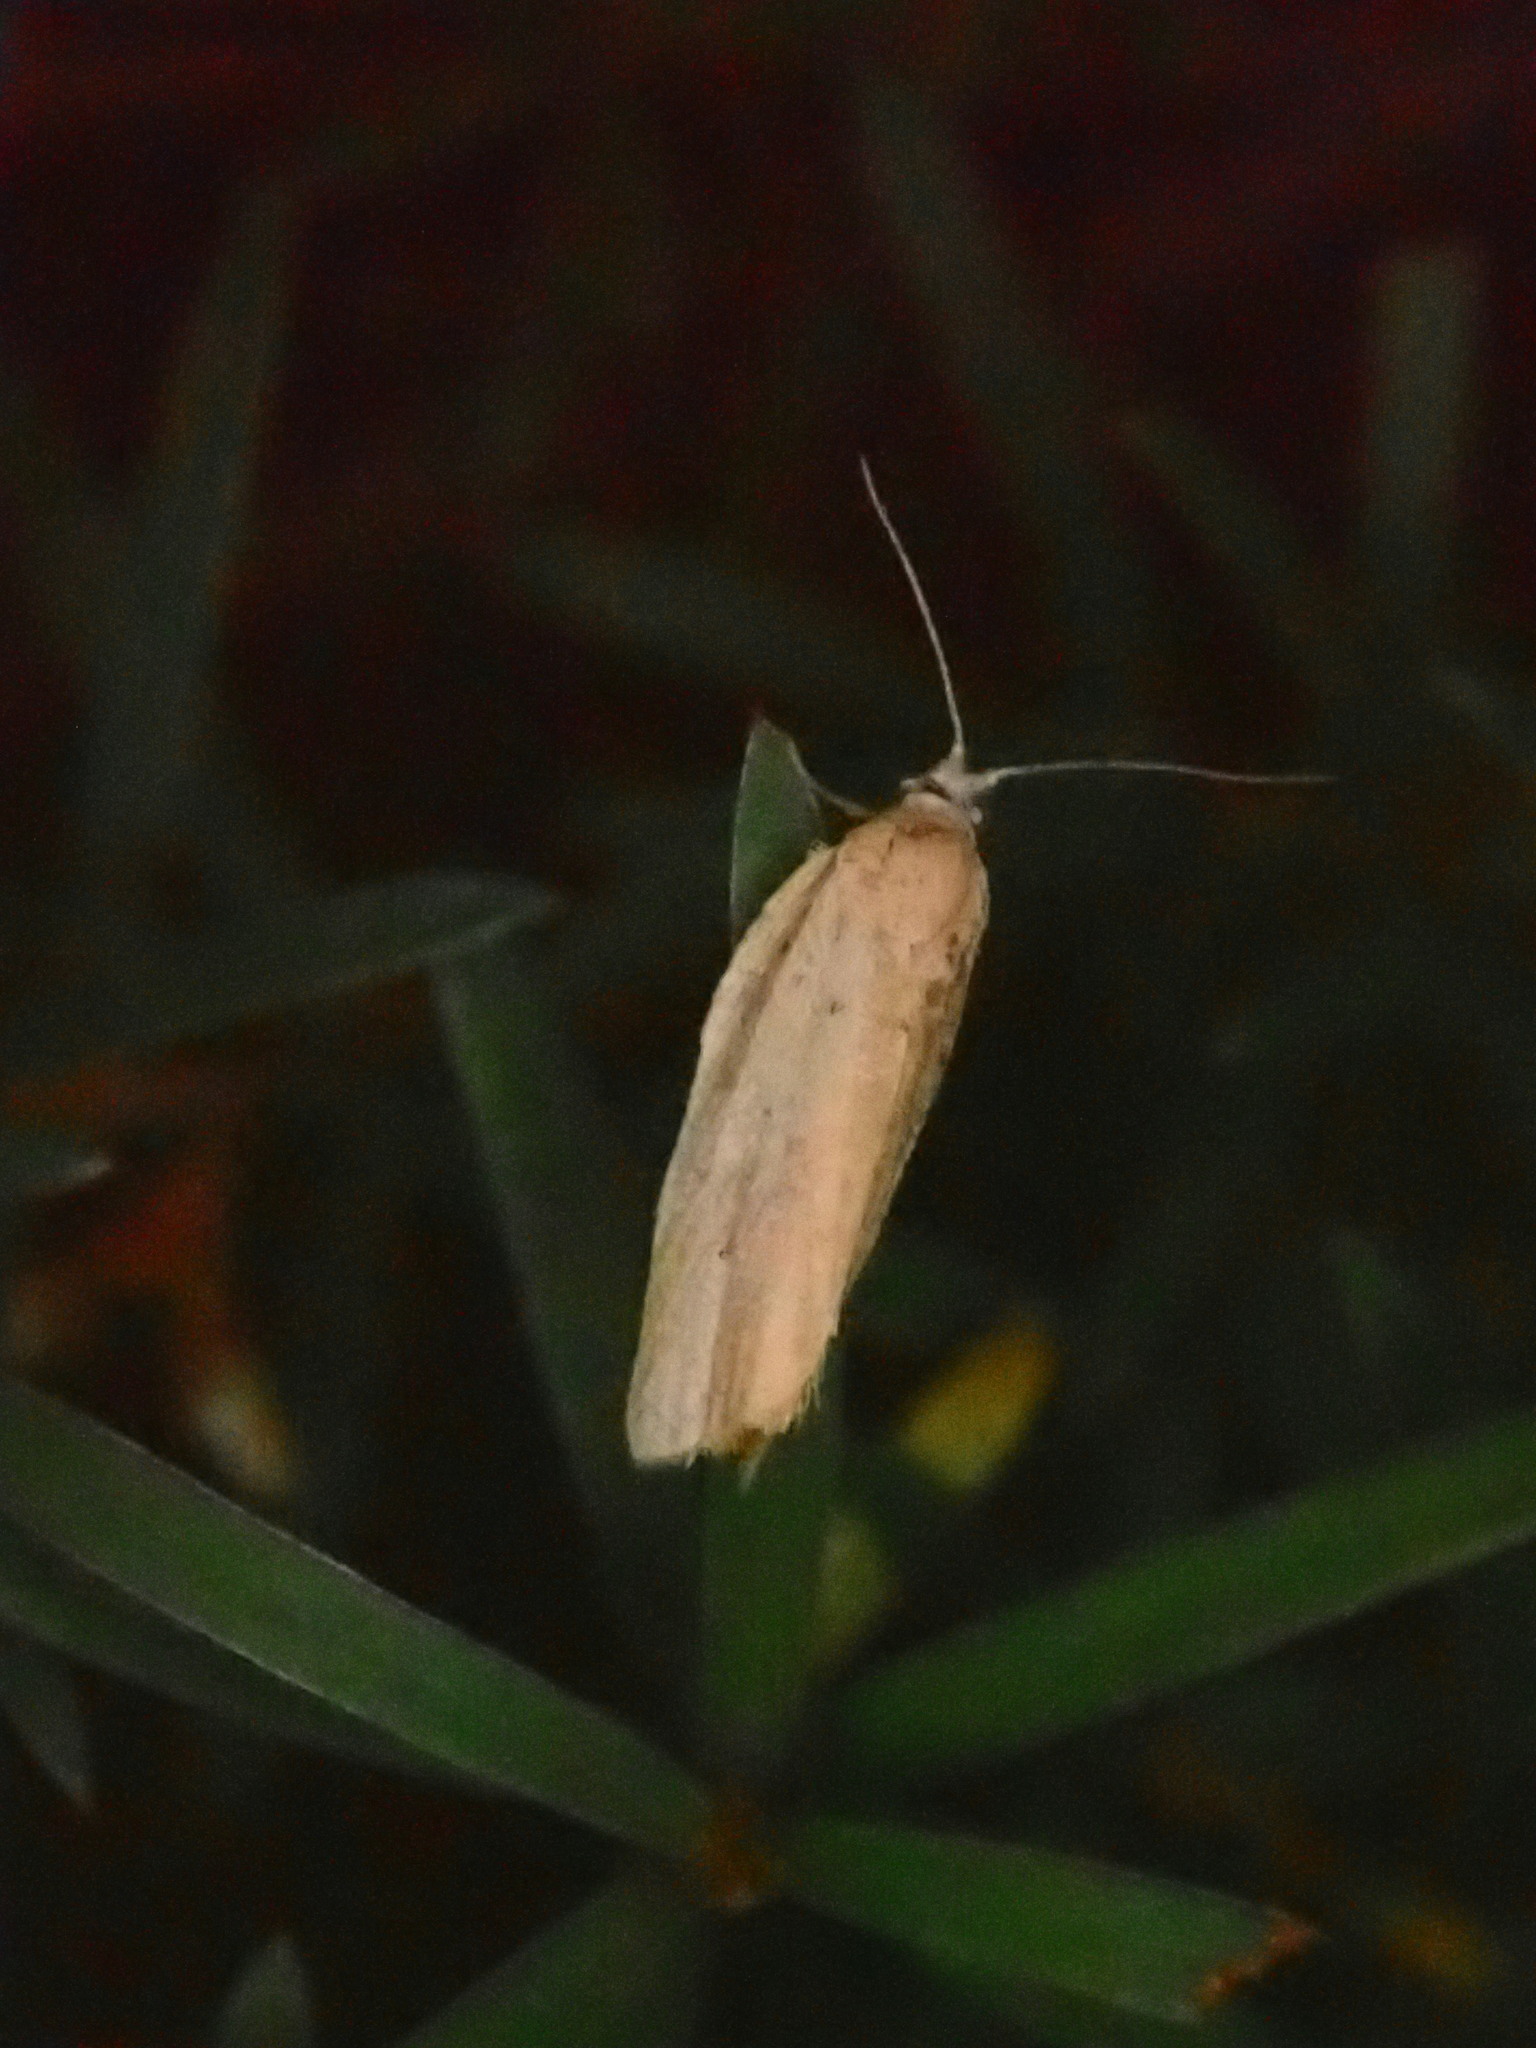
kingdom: Animalia
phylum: Arthropoda
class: Insecta
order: Lepidoptera
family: Tortricidae
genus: Clepsis
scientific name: Clepsis
